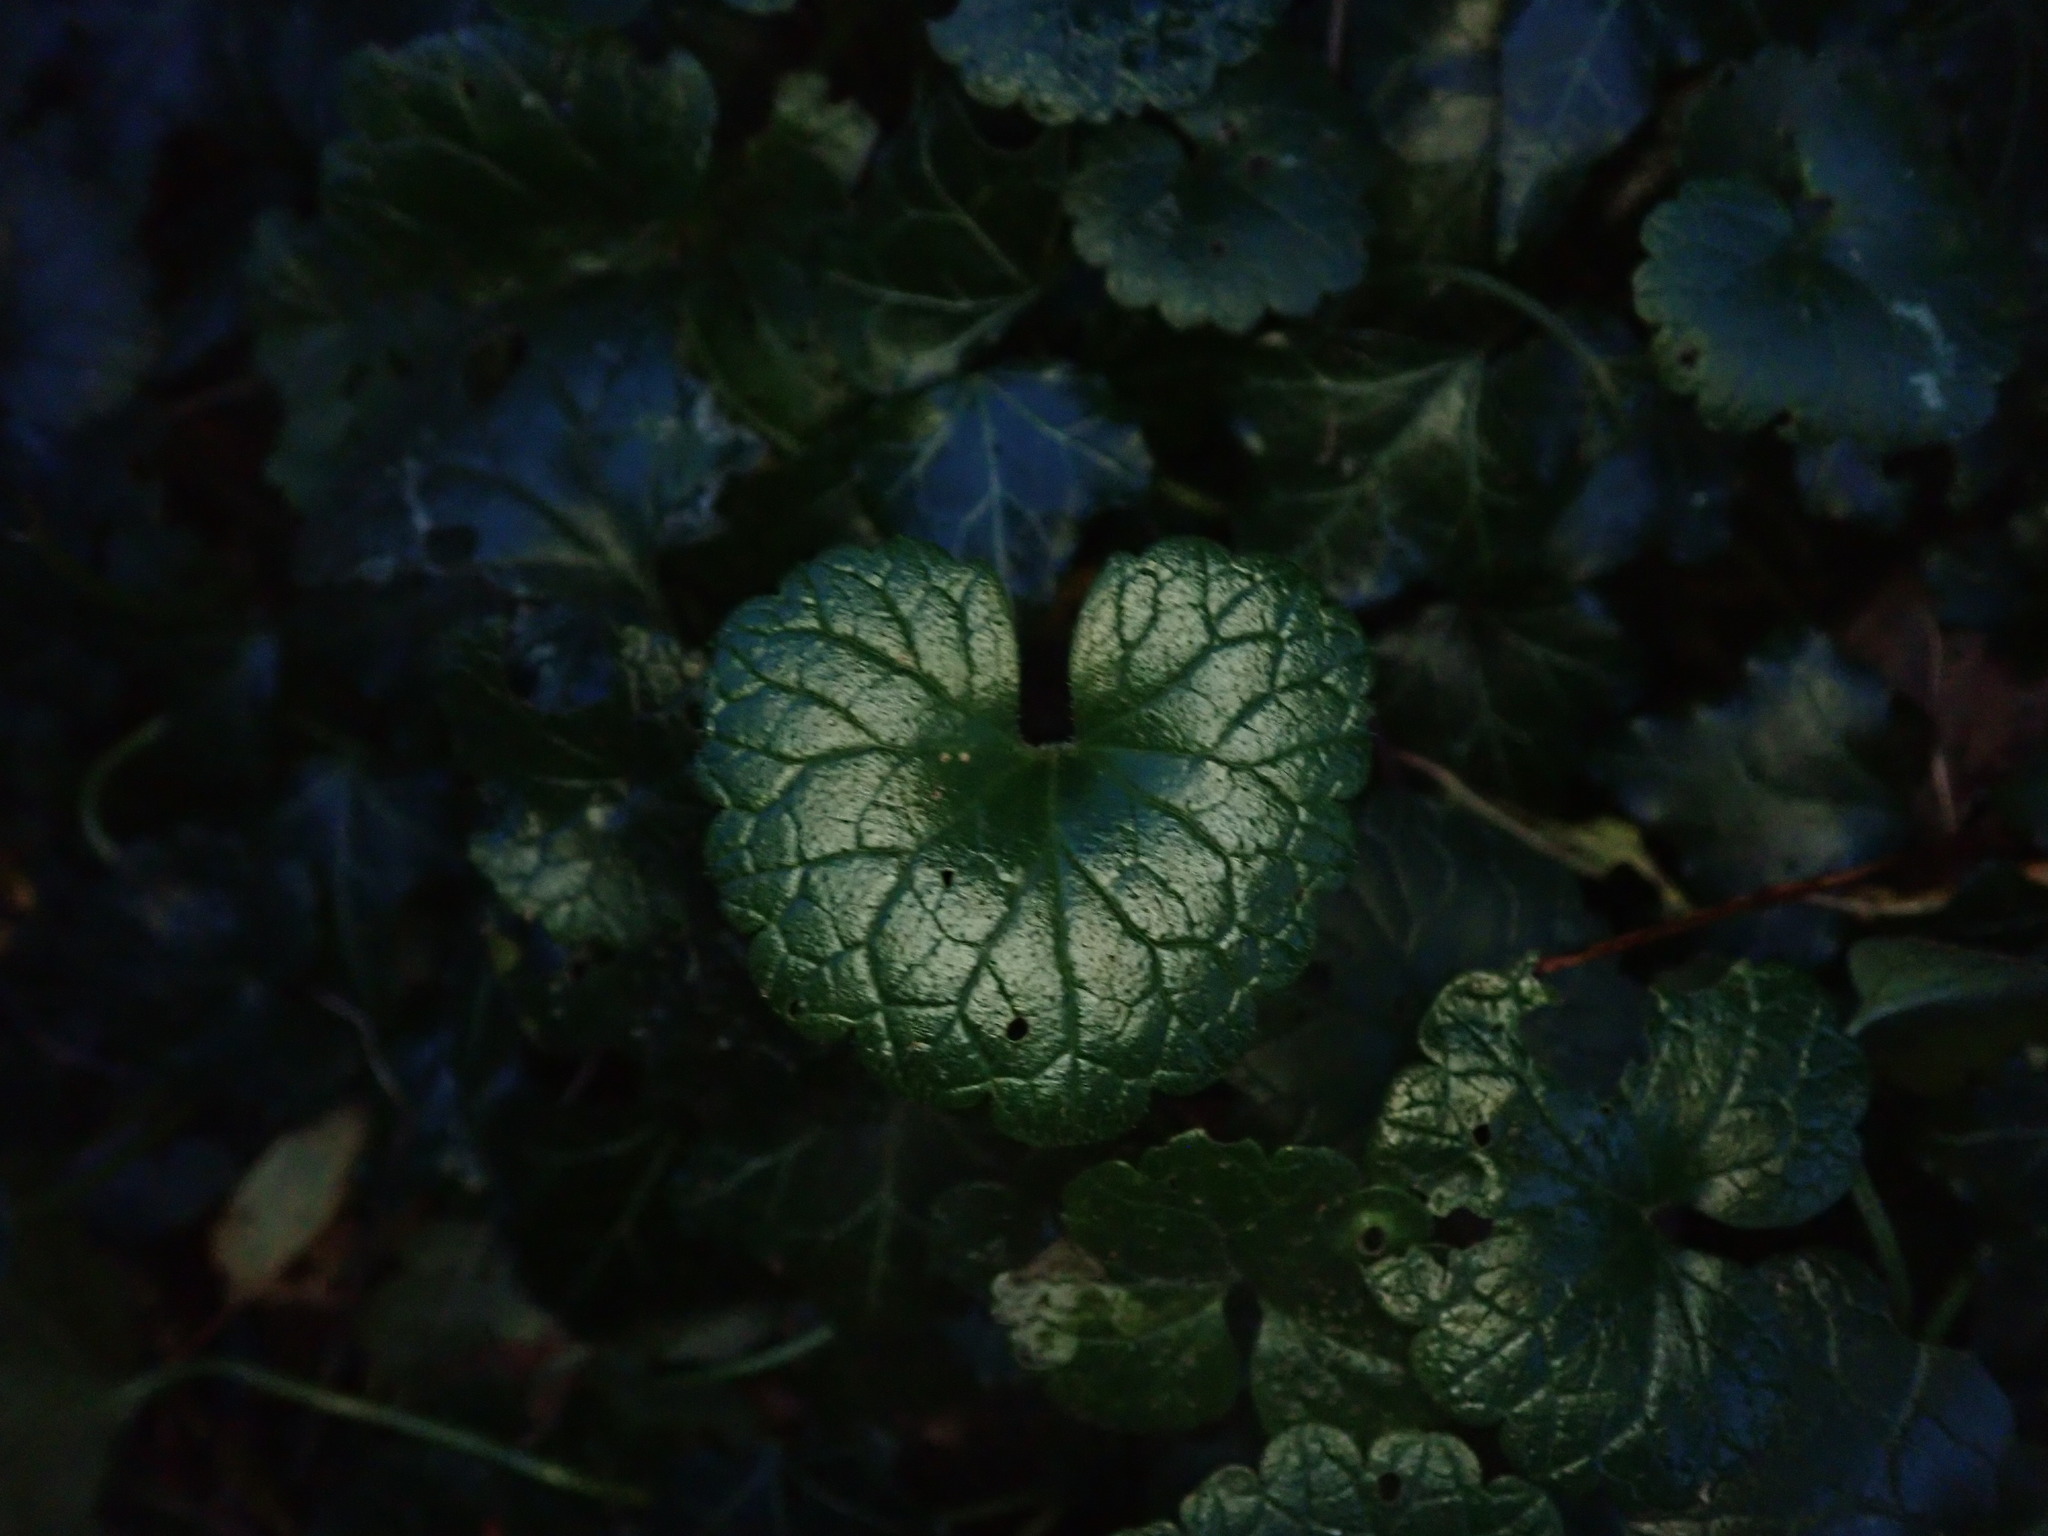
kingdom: Plantae
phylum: Tracheophyta
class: Magnoliopsida
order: Lamiales
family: Lamiaceae
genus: Glechoma
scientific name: Glechoma hederacea
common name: Ground ivy
